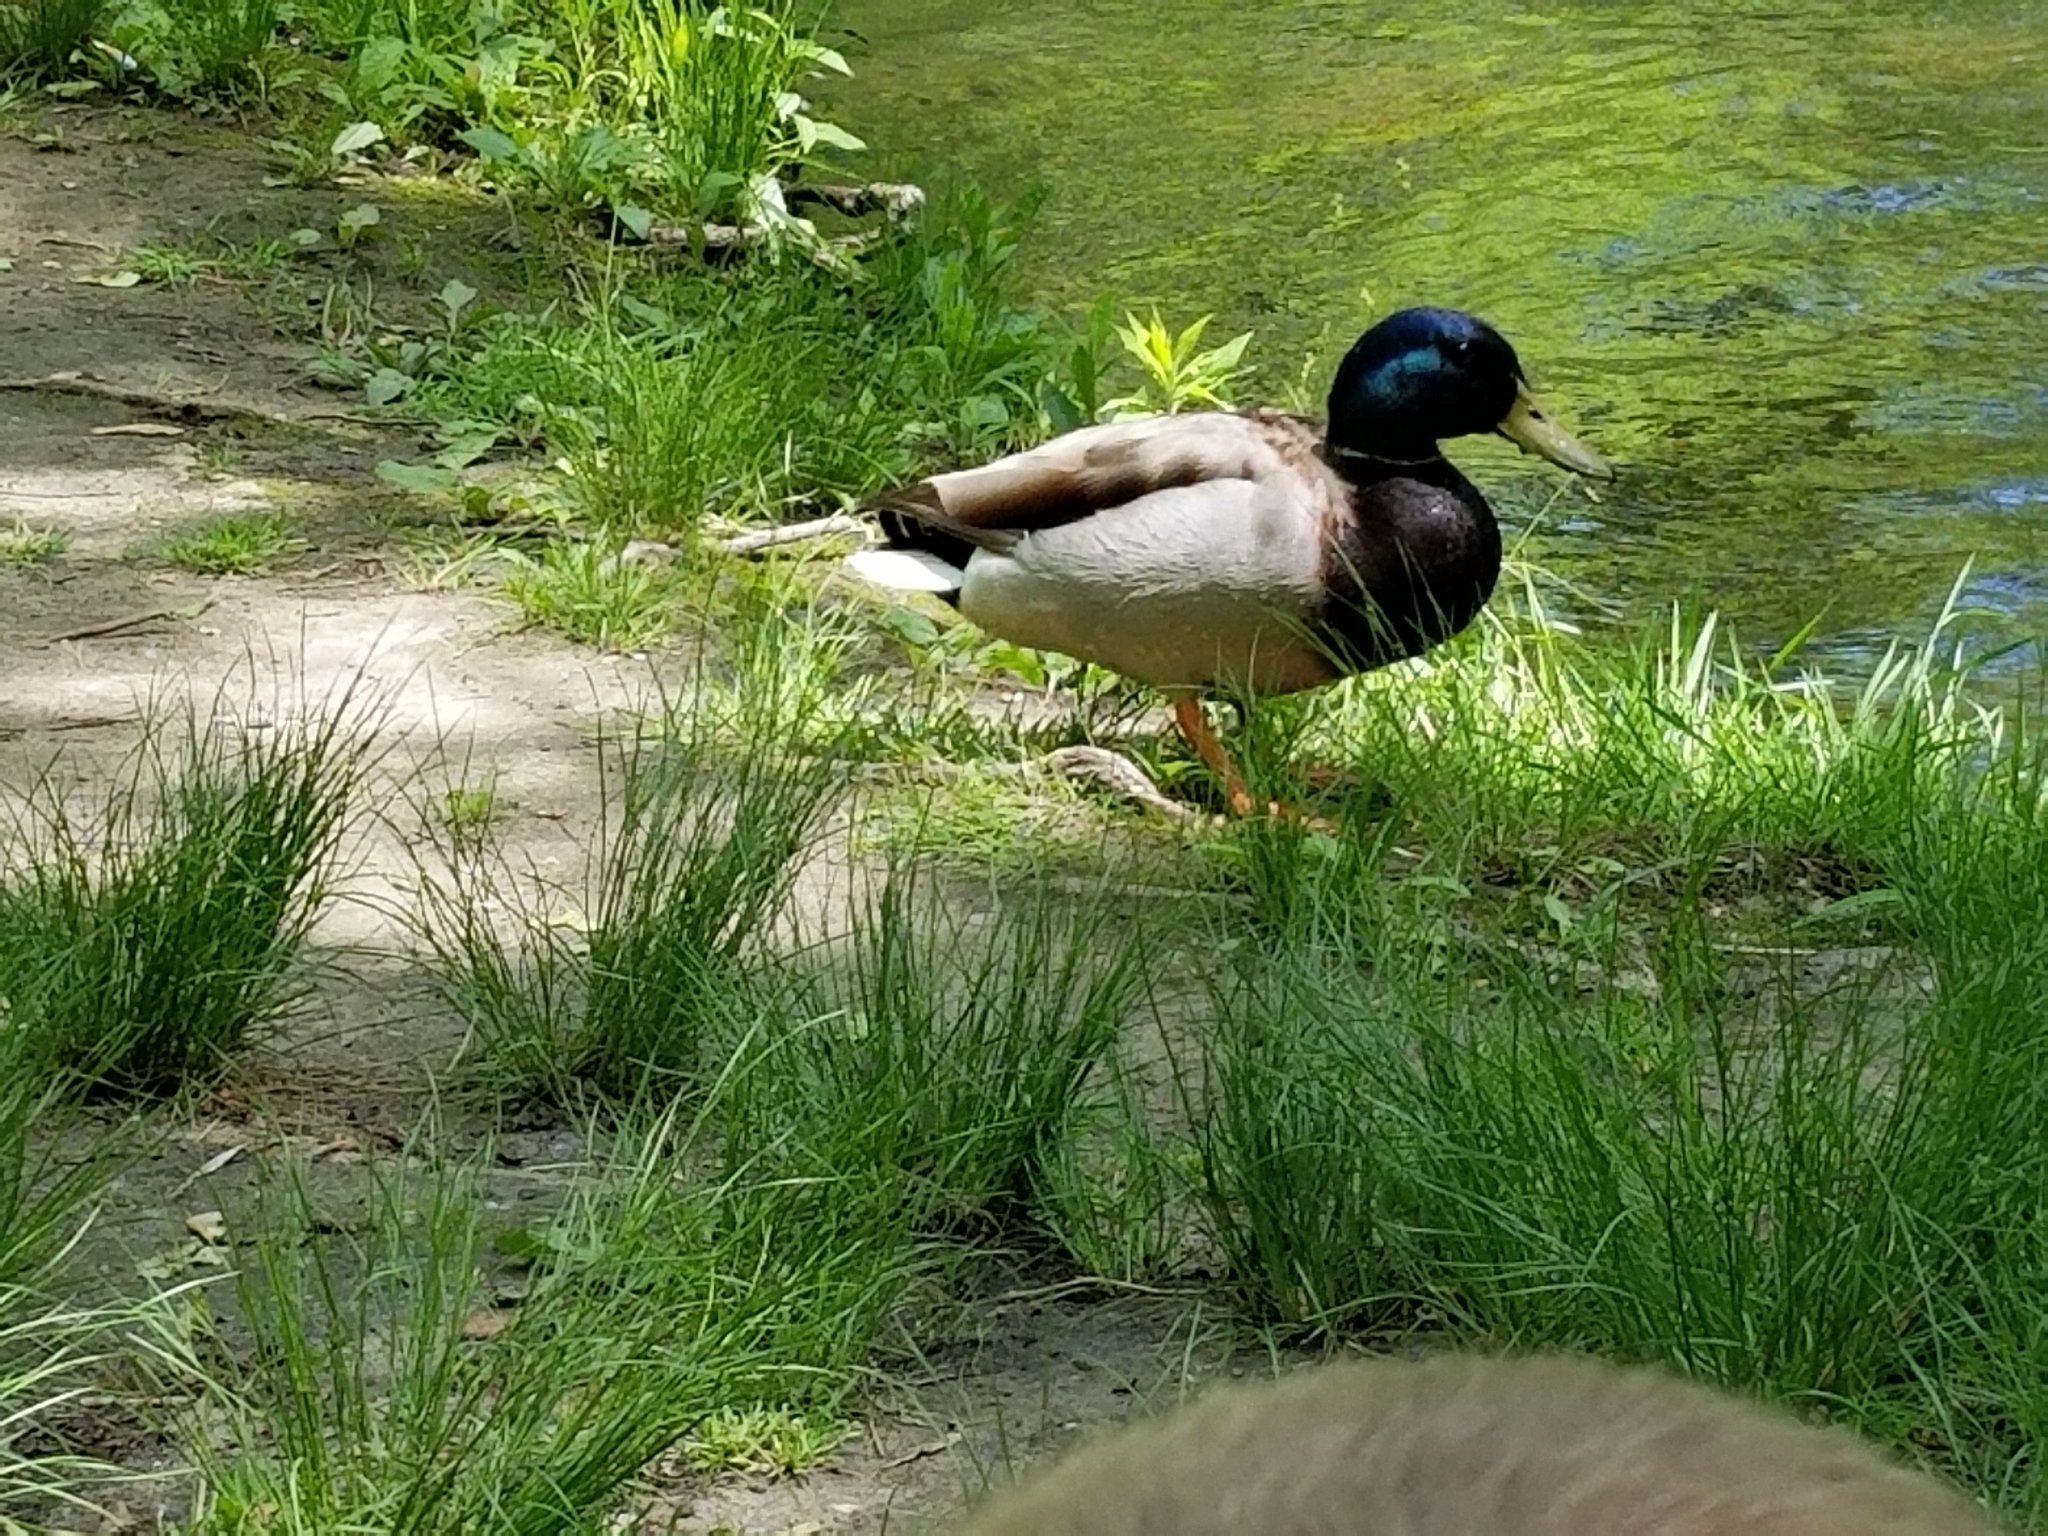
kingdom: Animalia
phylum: Chordata
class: Aves
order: Anseriformes
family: Anatidae
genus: Anas
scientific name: Anas platyrhynchos
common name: Mallard
